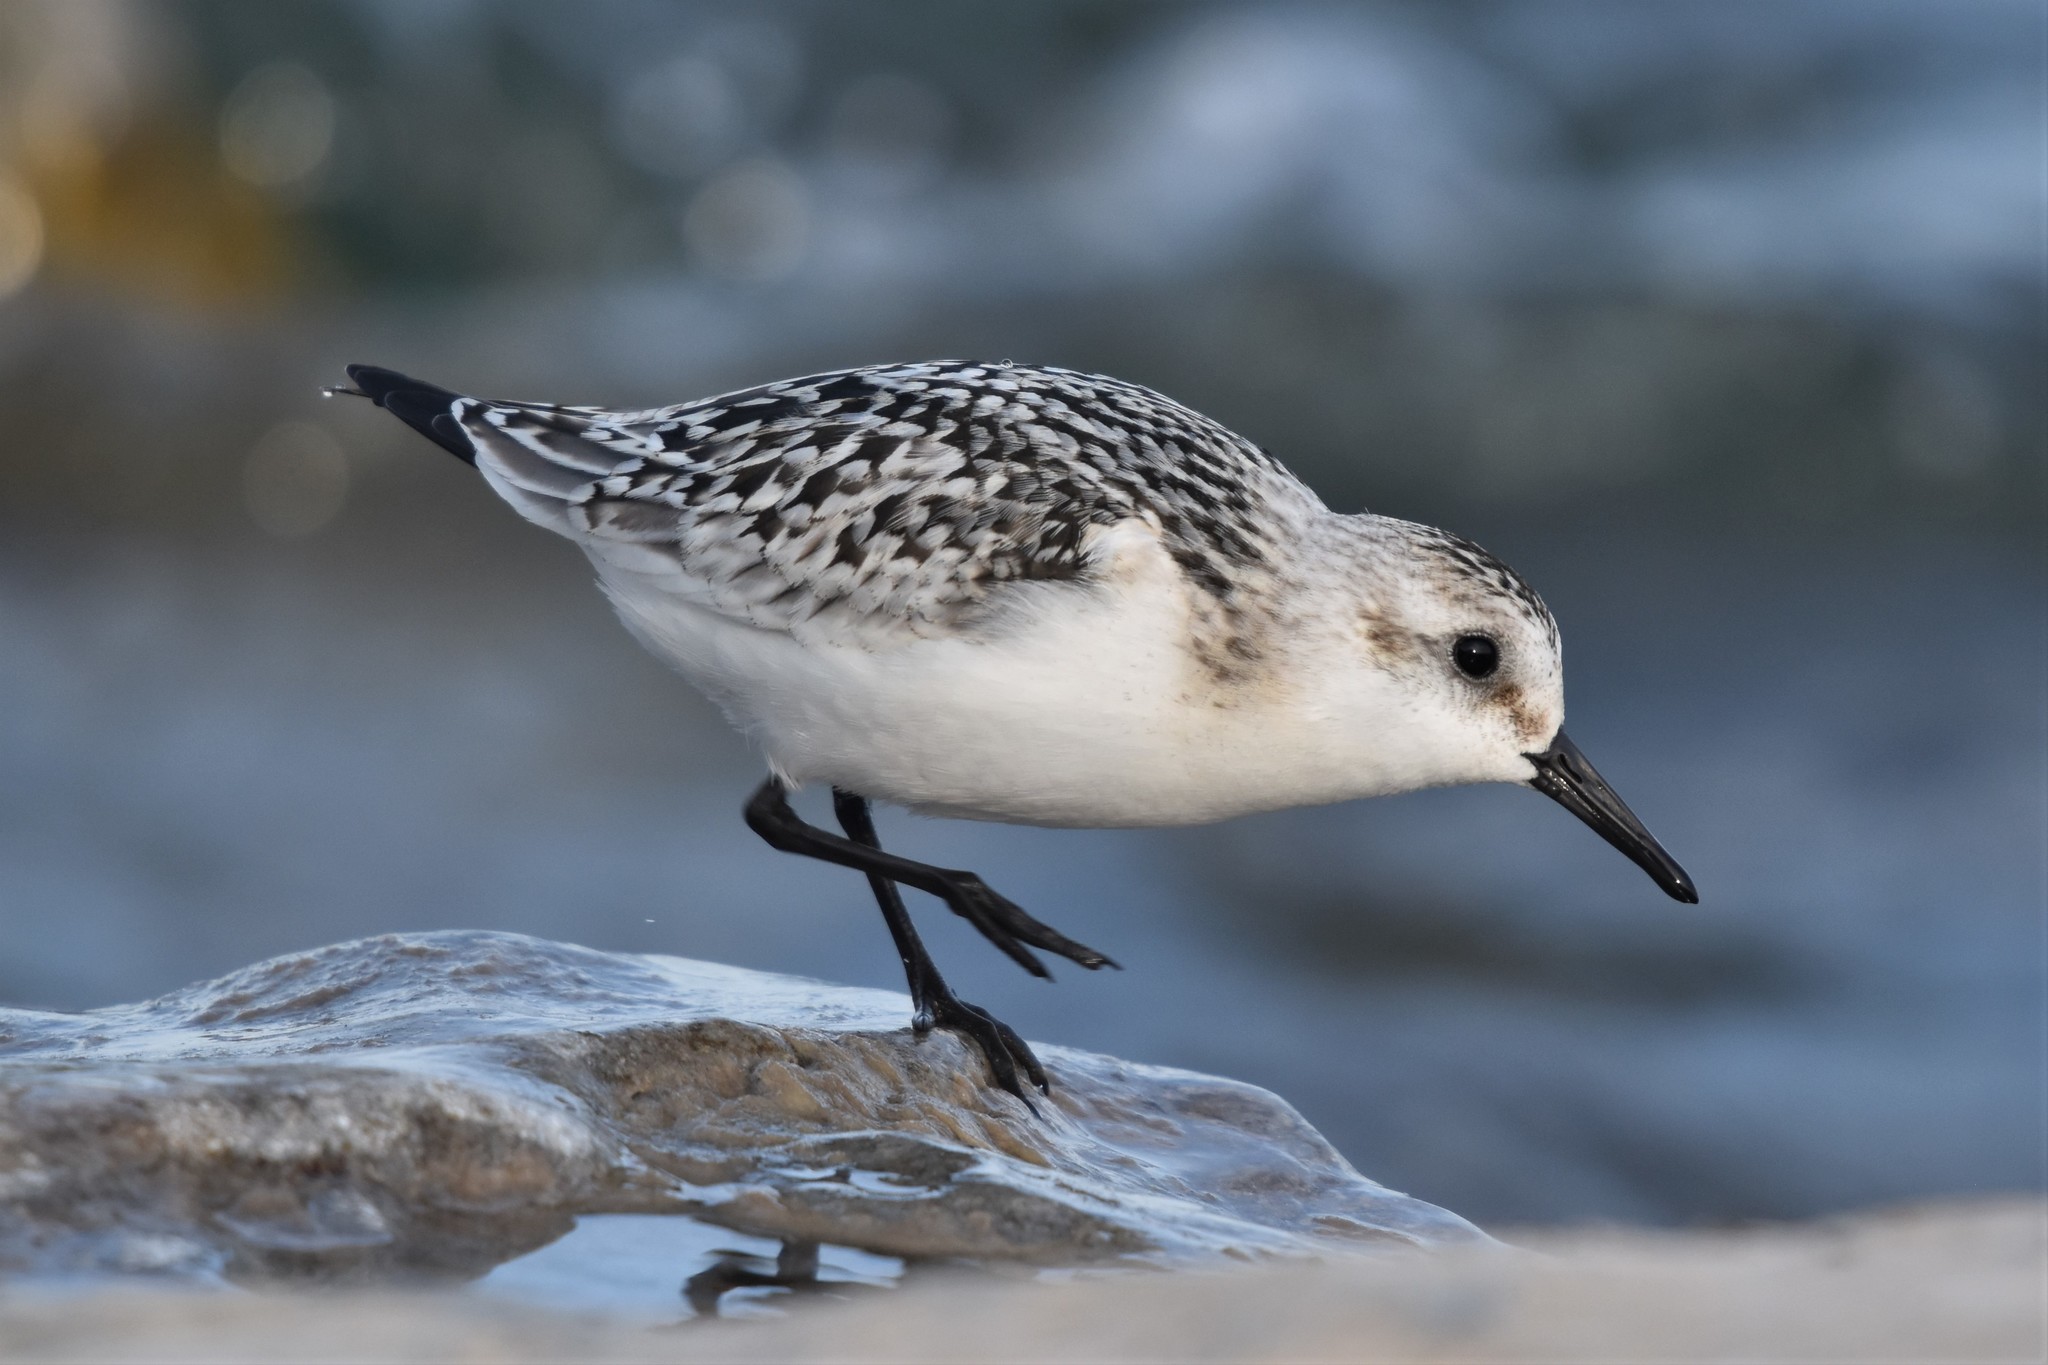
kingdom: Animalia
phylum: Chordata
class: Aves
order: Charadriiformes
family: Scolopacidae
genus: Calidris
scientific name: Calidris alba
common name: Sanderling
